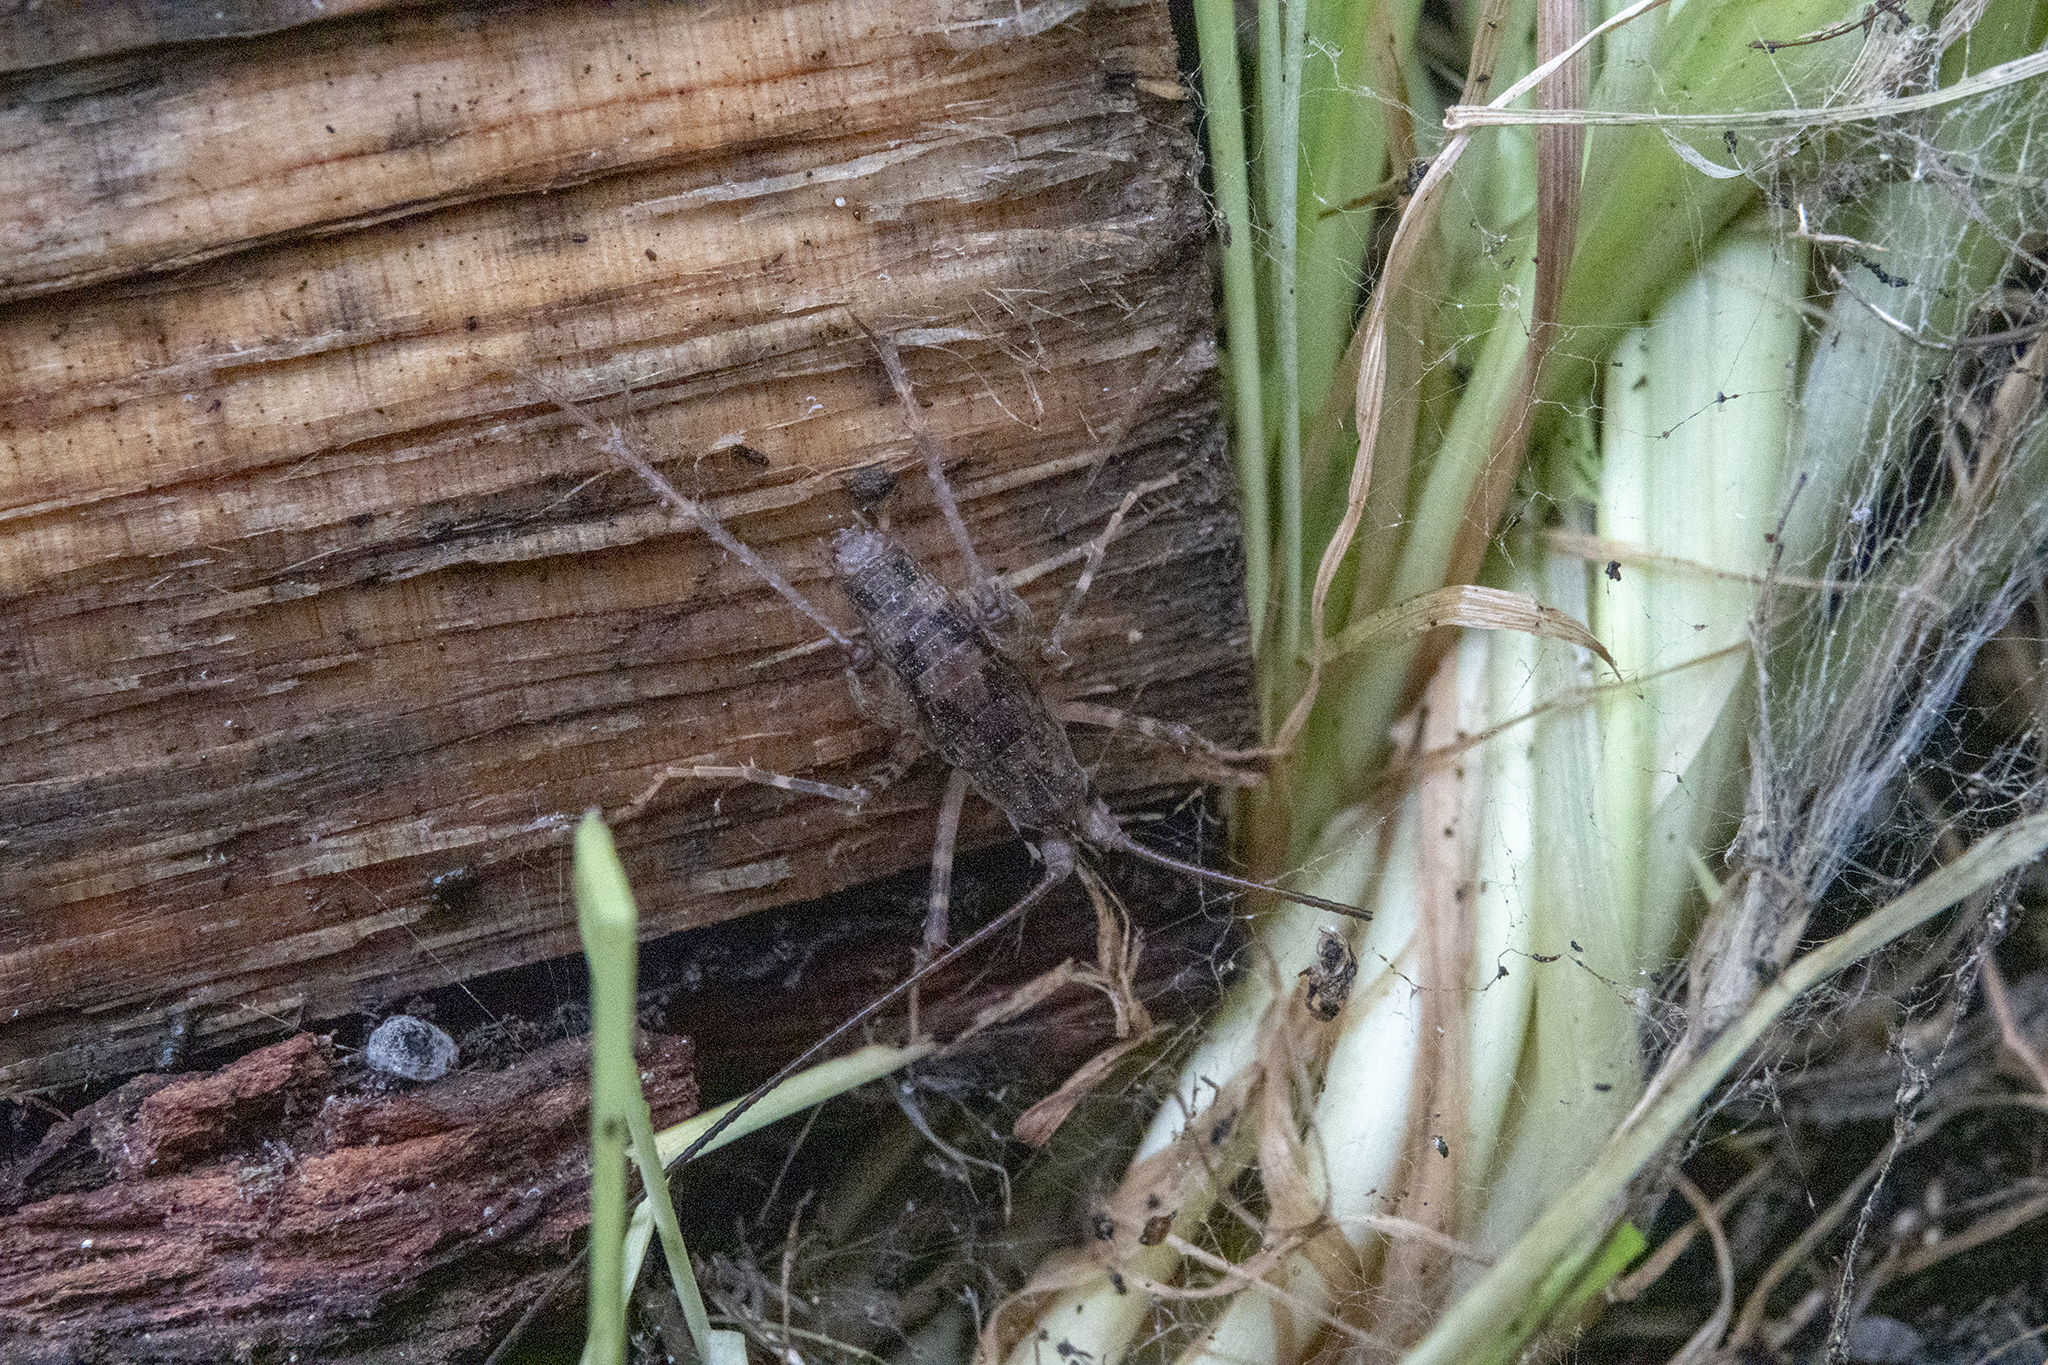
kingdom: Animalia
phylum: Arthropoda
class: Insecta
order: Orthoptera
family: Rhaphidophoridae
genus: Pleioplectron
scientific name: Pleioplectron simplex
